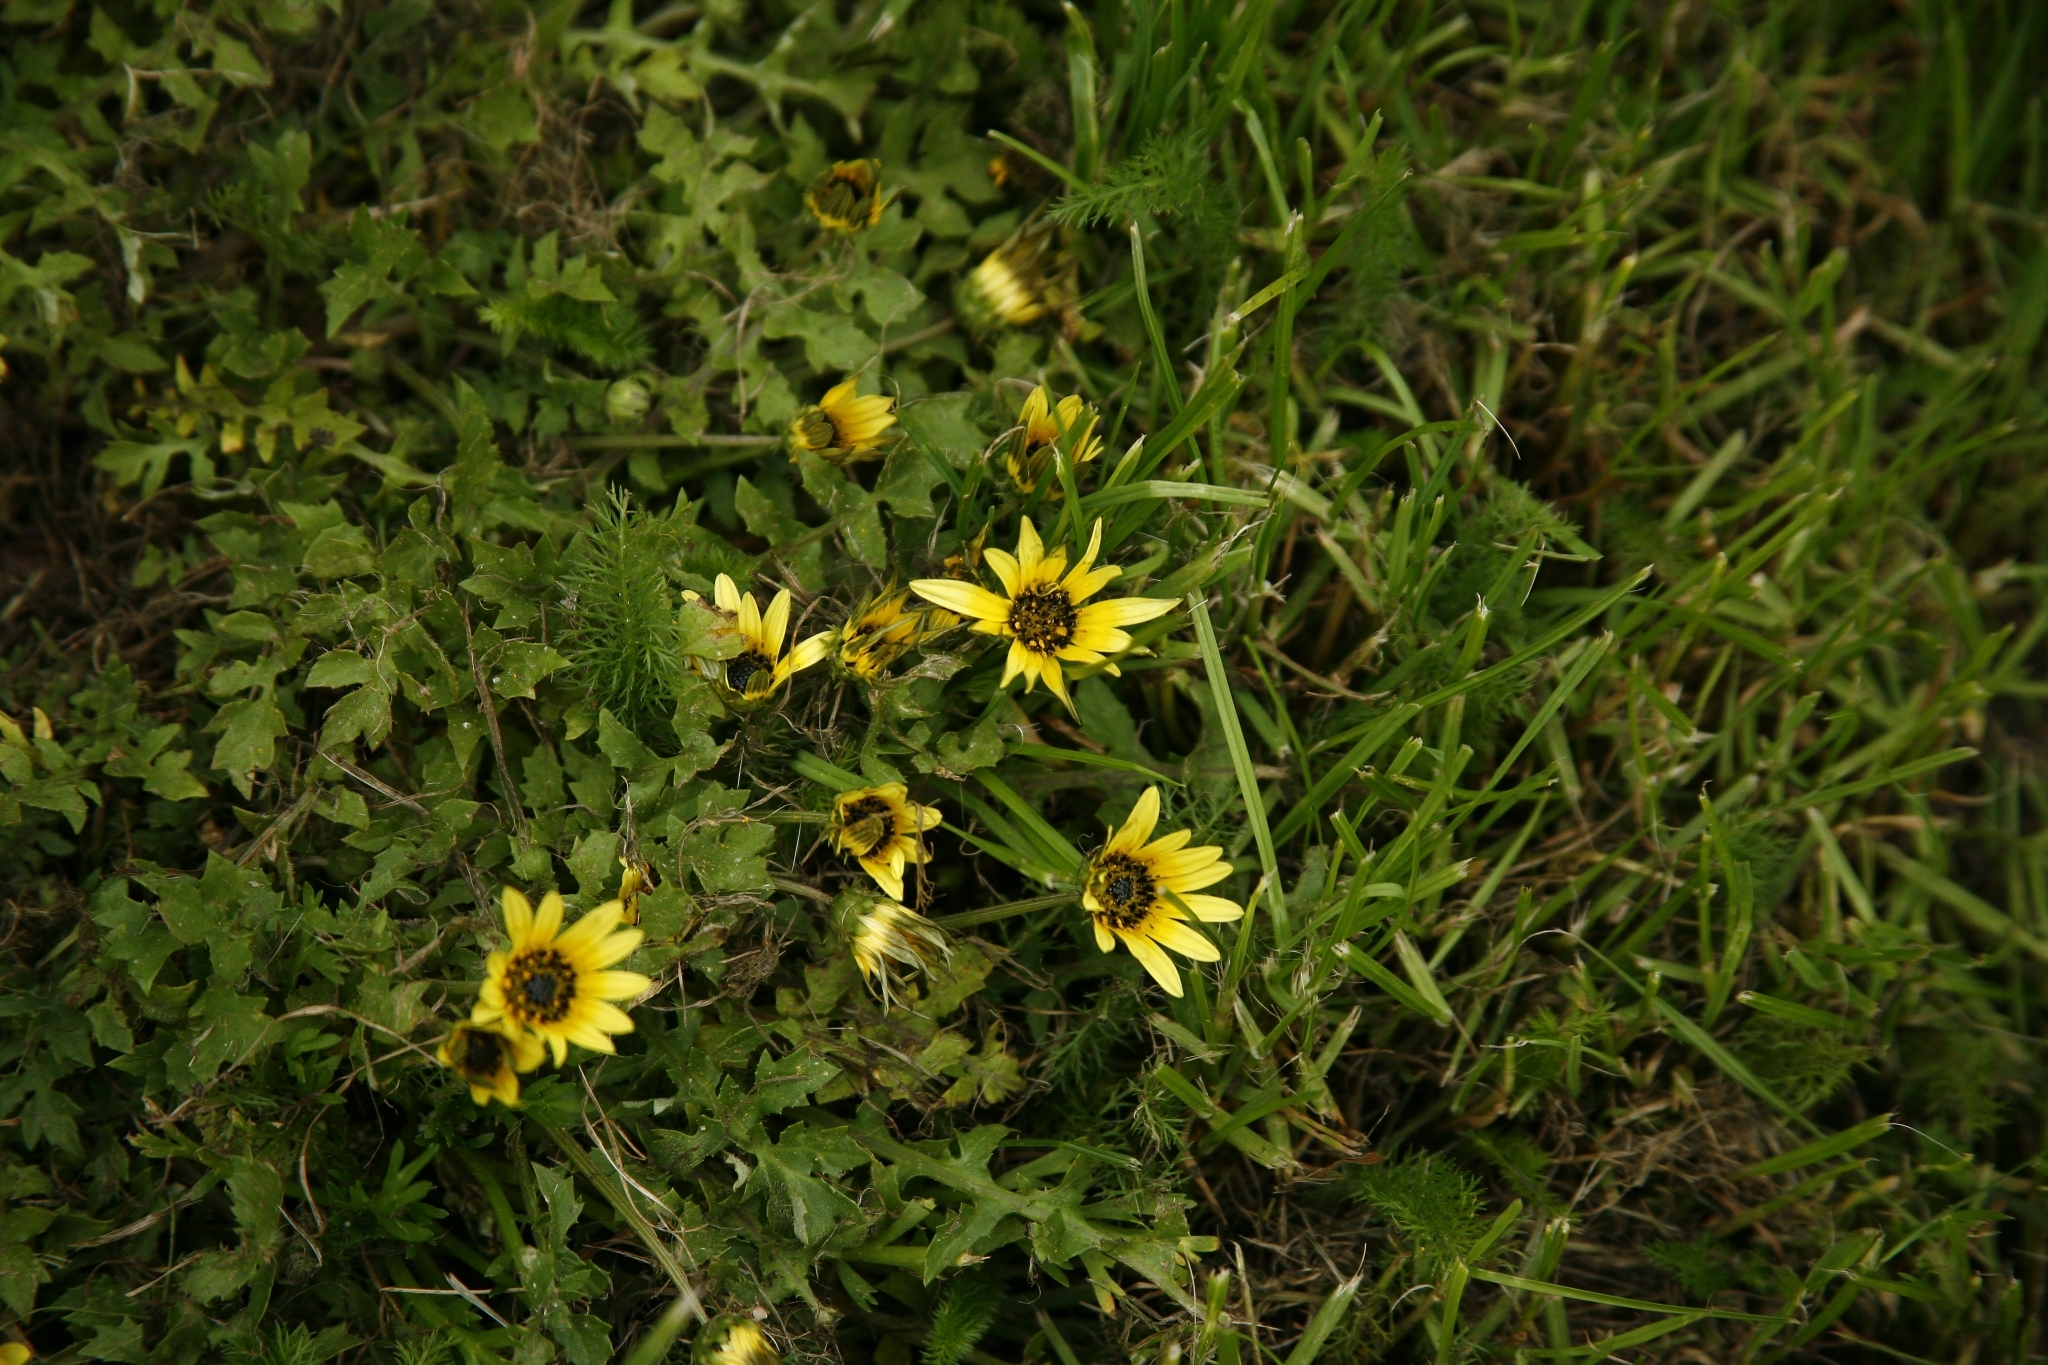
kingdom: Plantae
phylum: Tracheophyta
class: Magnoliopsida
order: Asterales
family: Asteraceae
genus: Arctotheca
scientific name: Arctotheca calendula
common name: Capeweed
